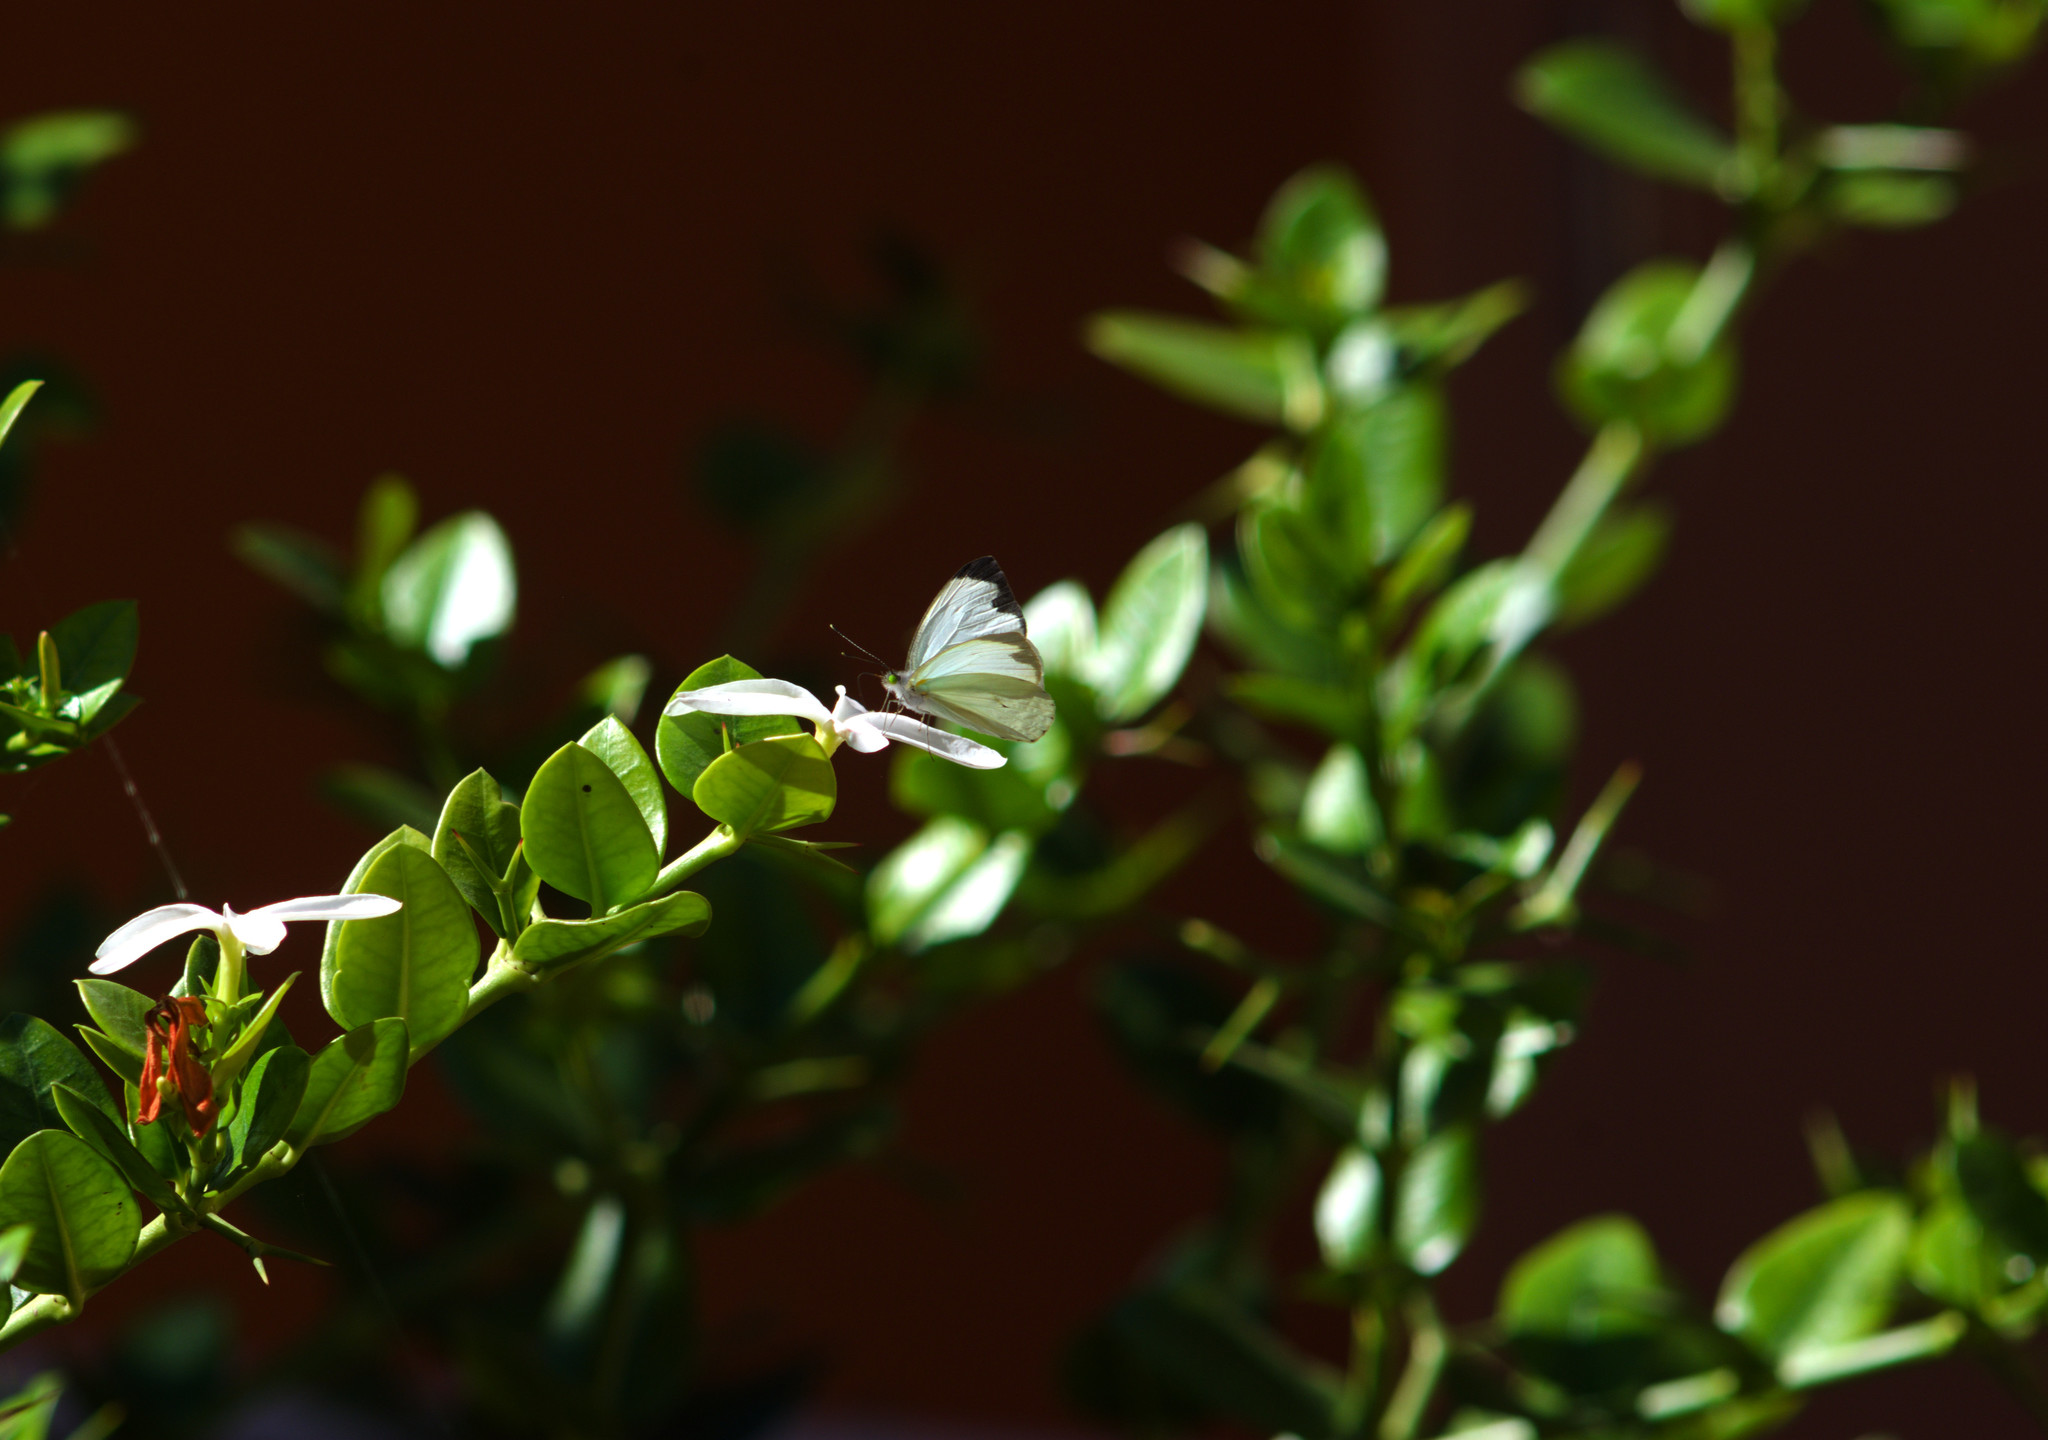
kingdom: Animalia
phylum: Arthropoda
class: Insecta
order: Lepidoptera
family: Pieridae
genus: Leptophobia
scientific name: Leptophobia aripa
